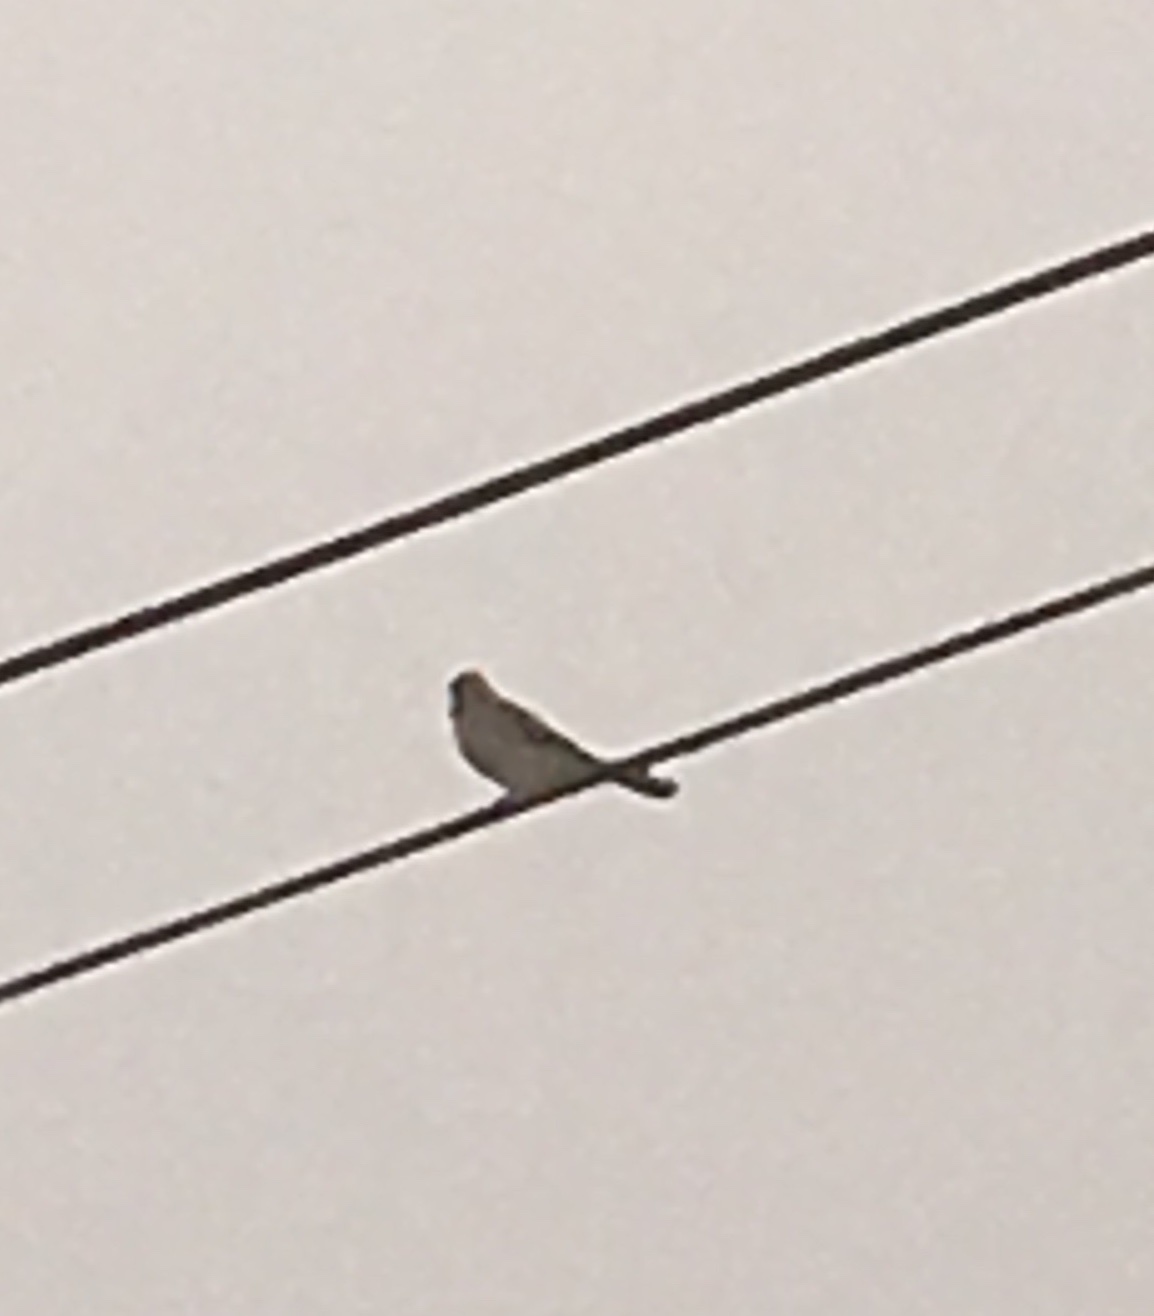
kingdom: Animalia
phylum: Chordata
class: Aves
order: Falconiformes
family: Falconidae
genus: Falco
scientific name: Falco sparverius
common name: American kestrel
